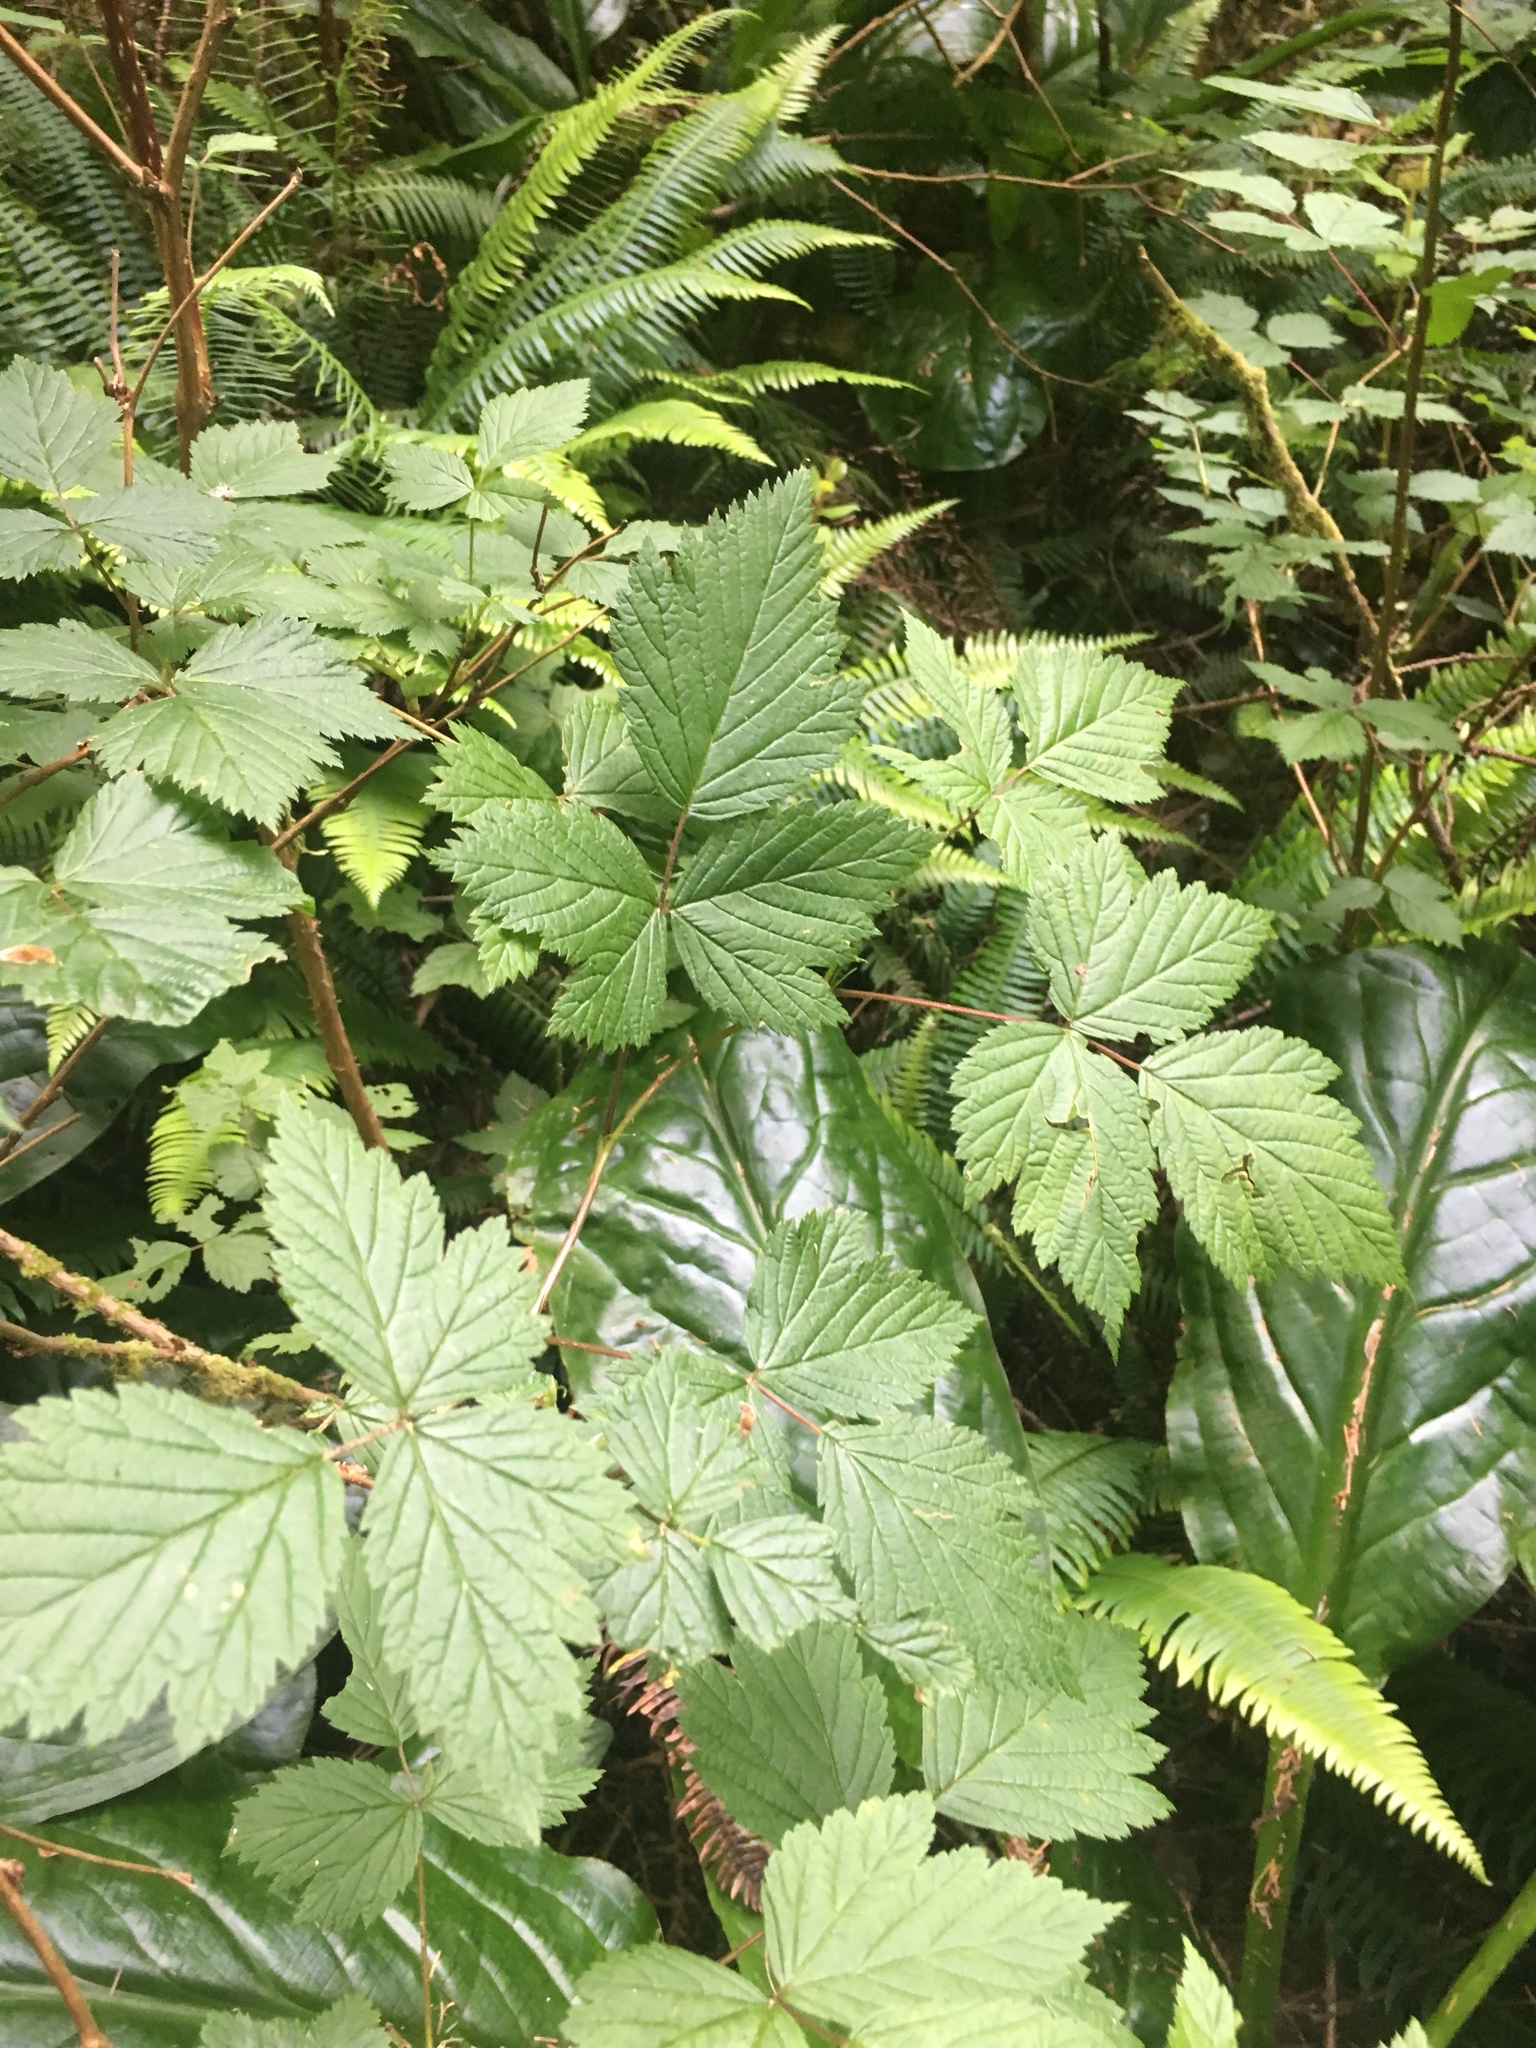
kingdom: Plantae
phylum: Tracheophyta
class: Magnoliopsida
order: Rosales
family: Rosaceae
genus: Rubus
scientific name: Rubus spectabilis
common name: Salmonberry
